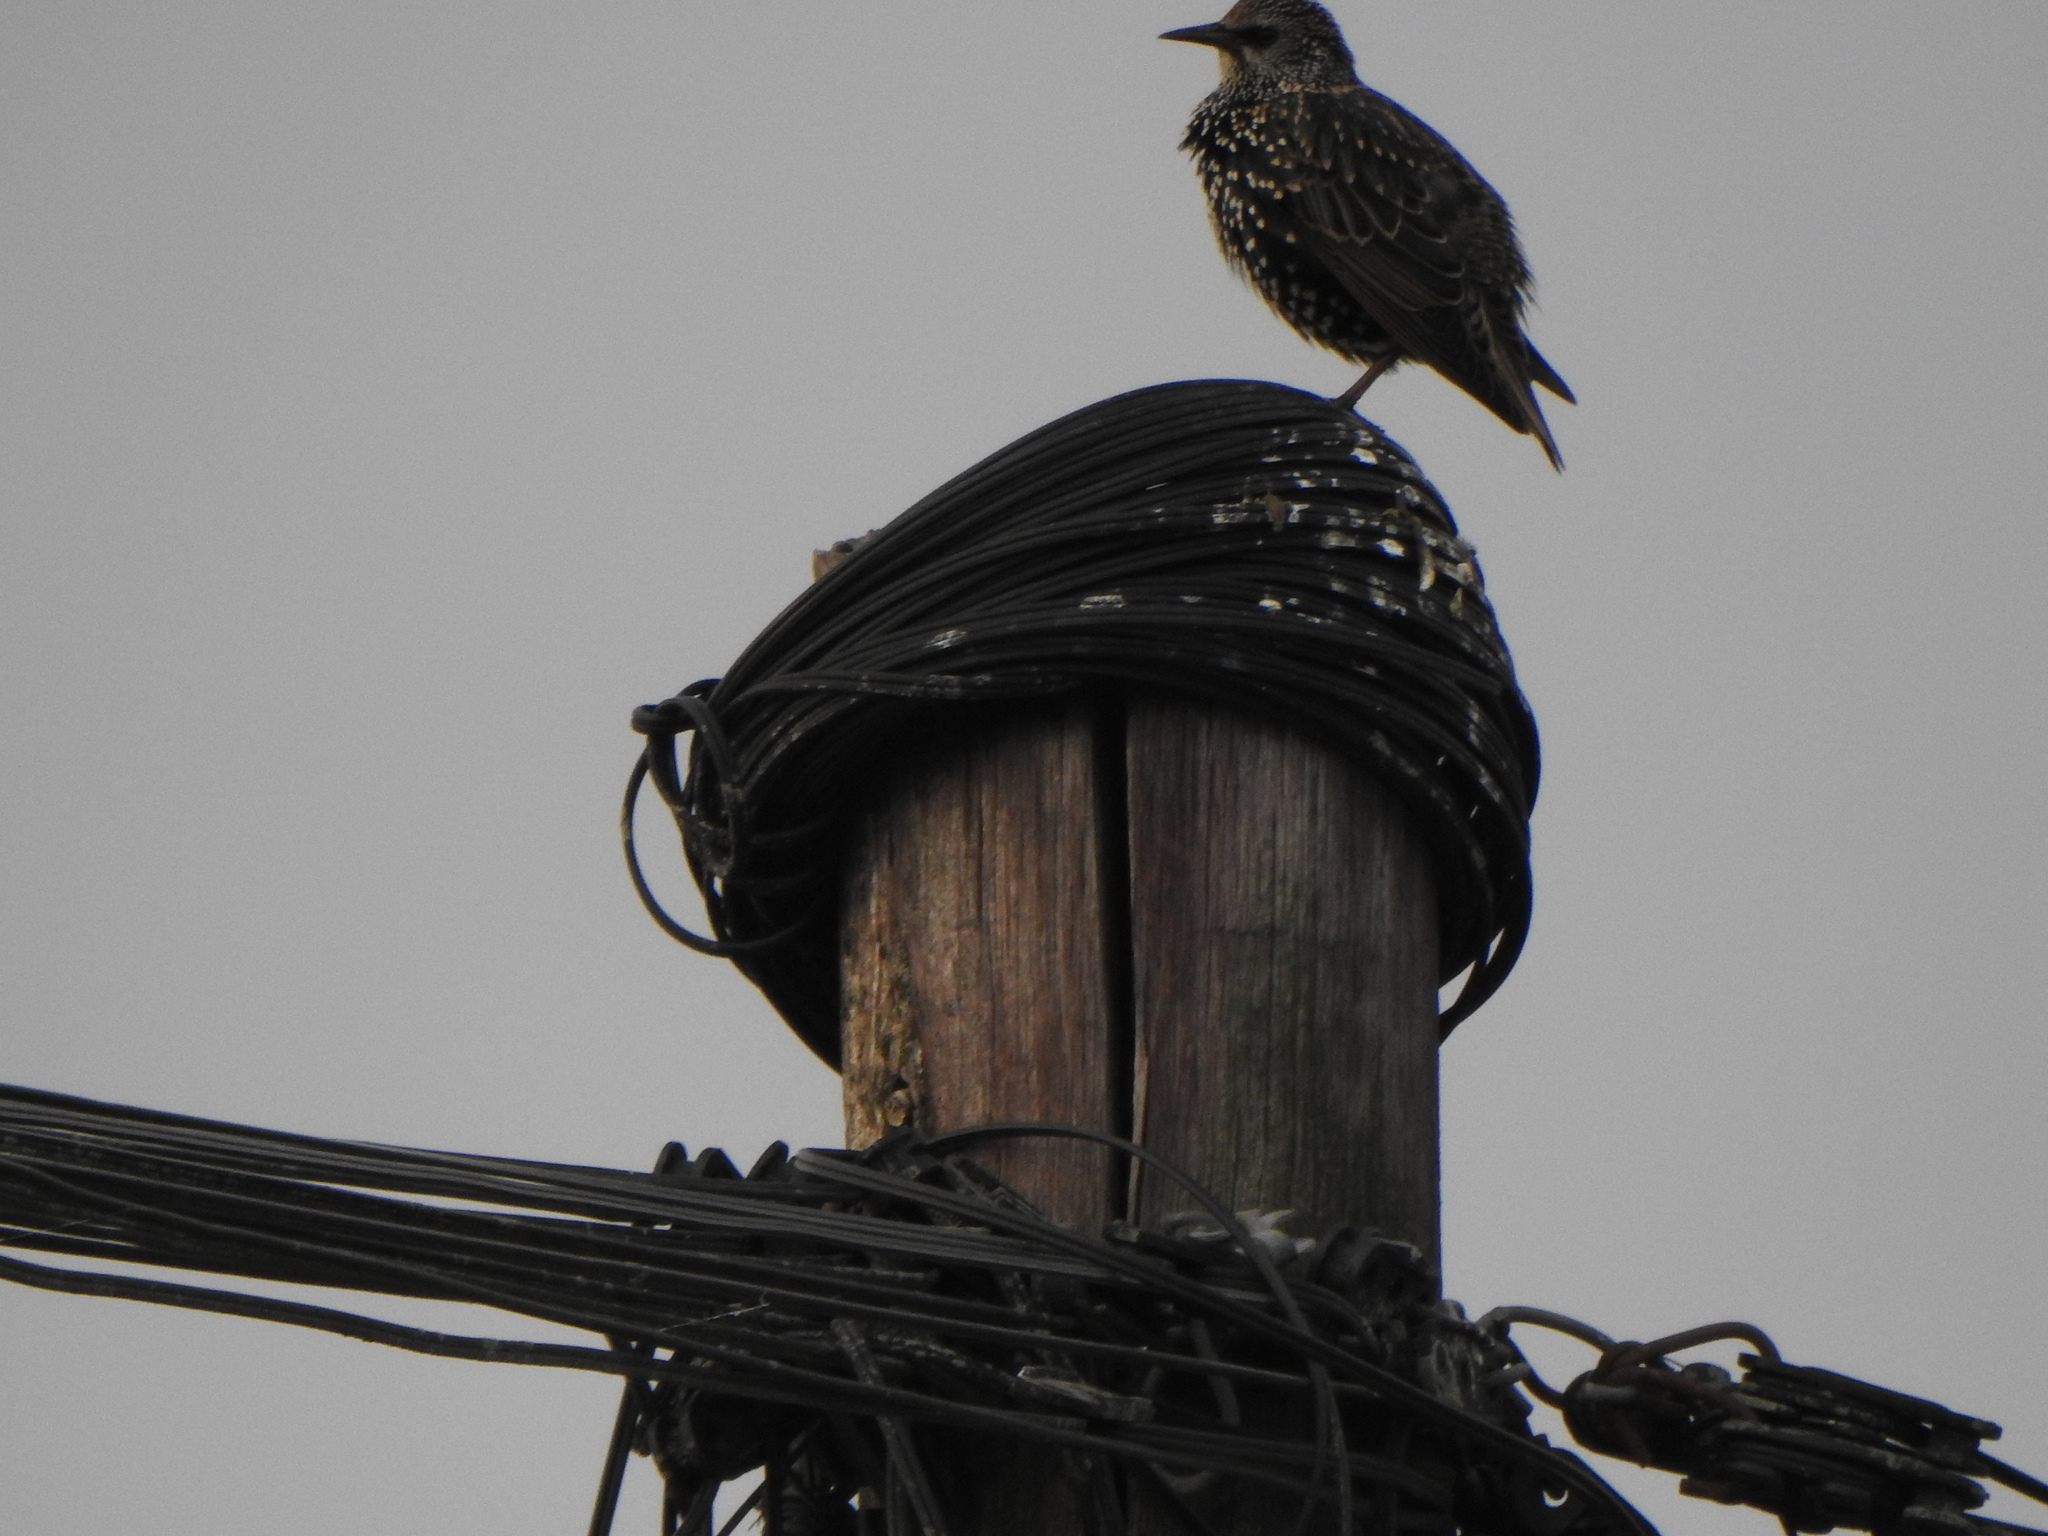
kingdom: Animalia
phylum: Chordata
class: Aves
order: Passeriformes
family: Sturnidae
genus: Sturnus
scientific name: Sturnus vulgaris
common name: Common starling
